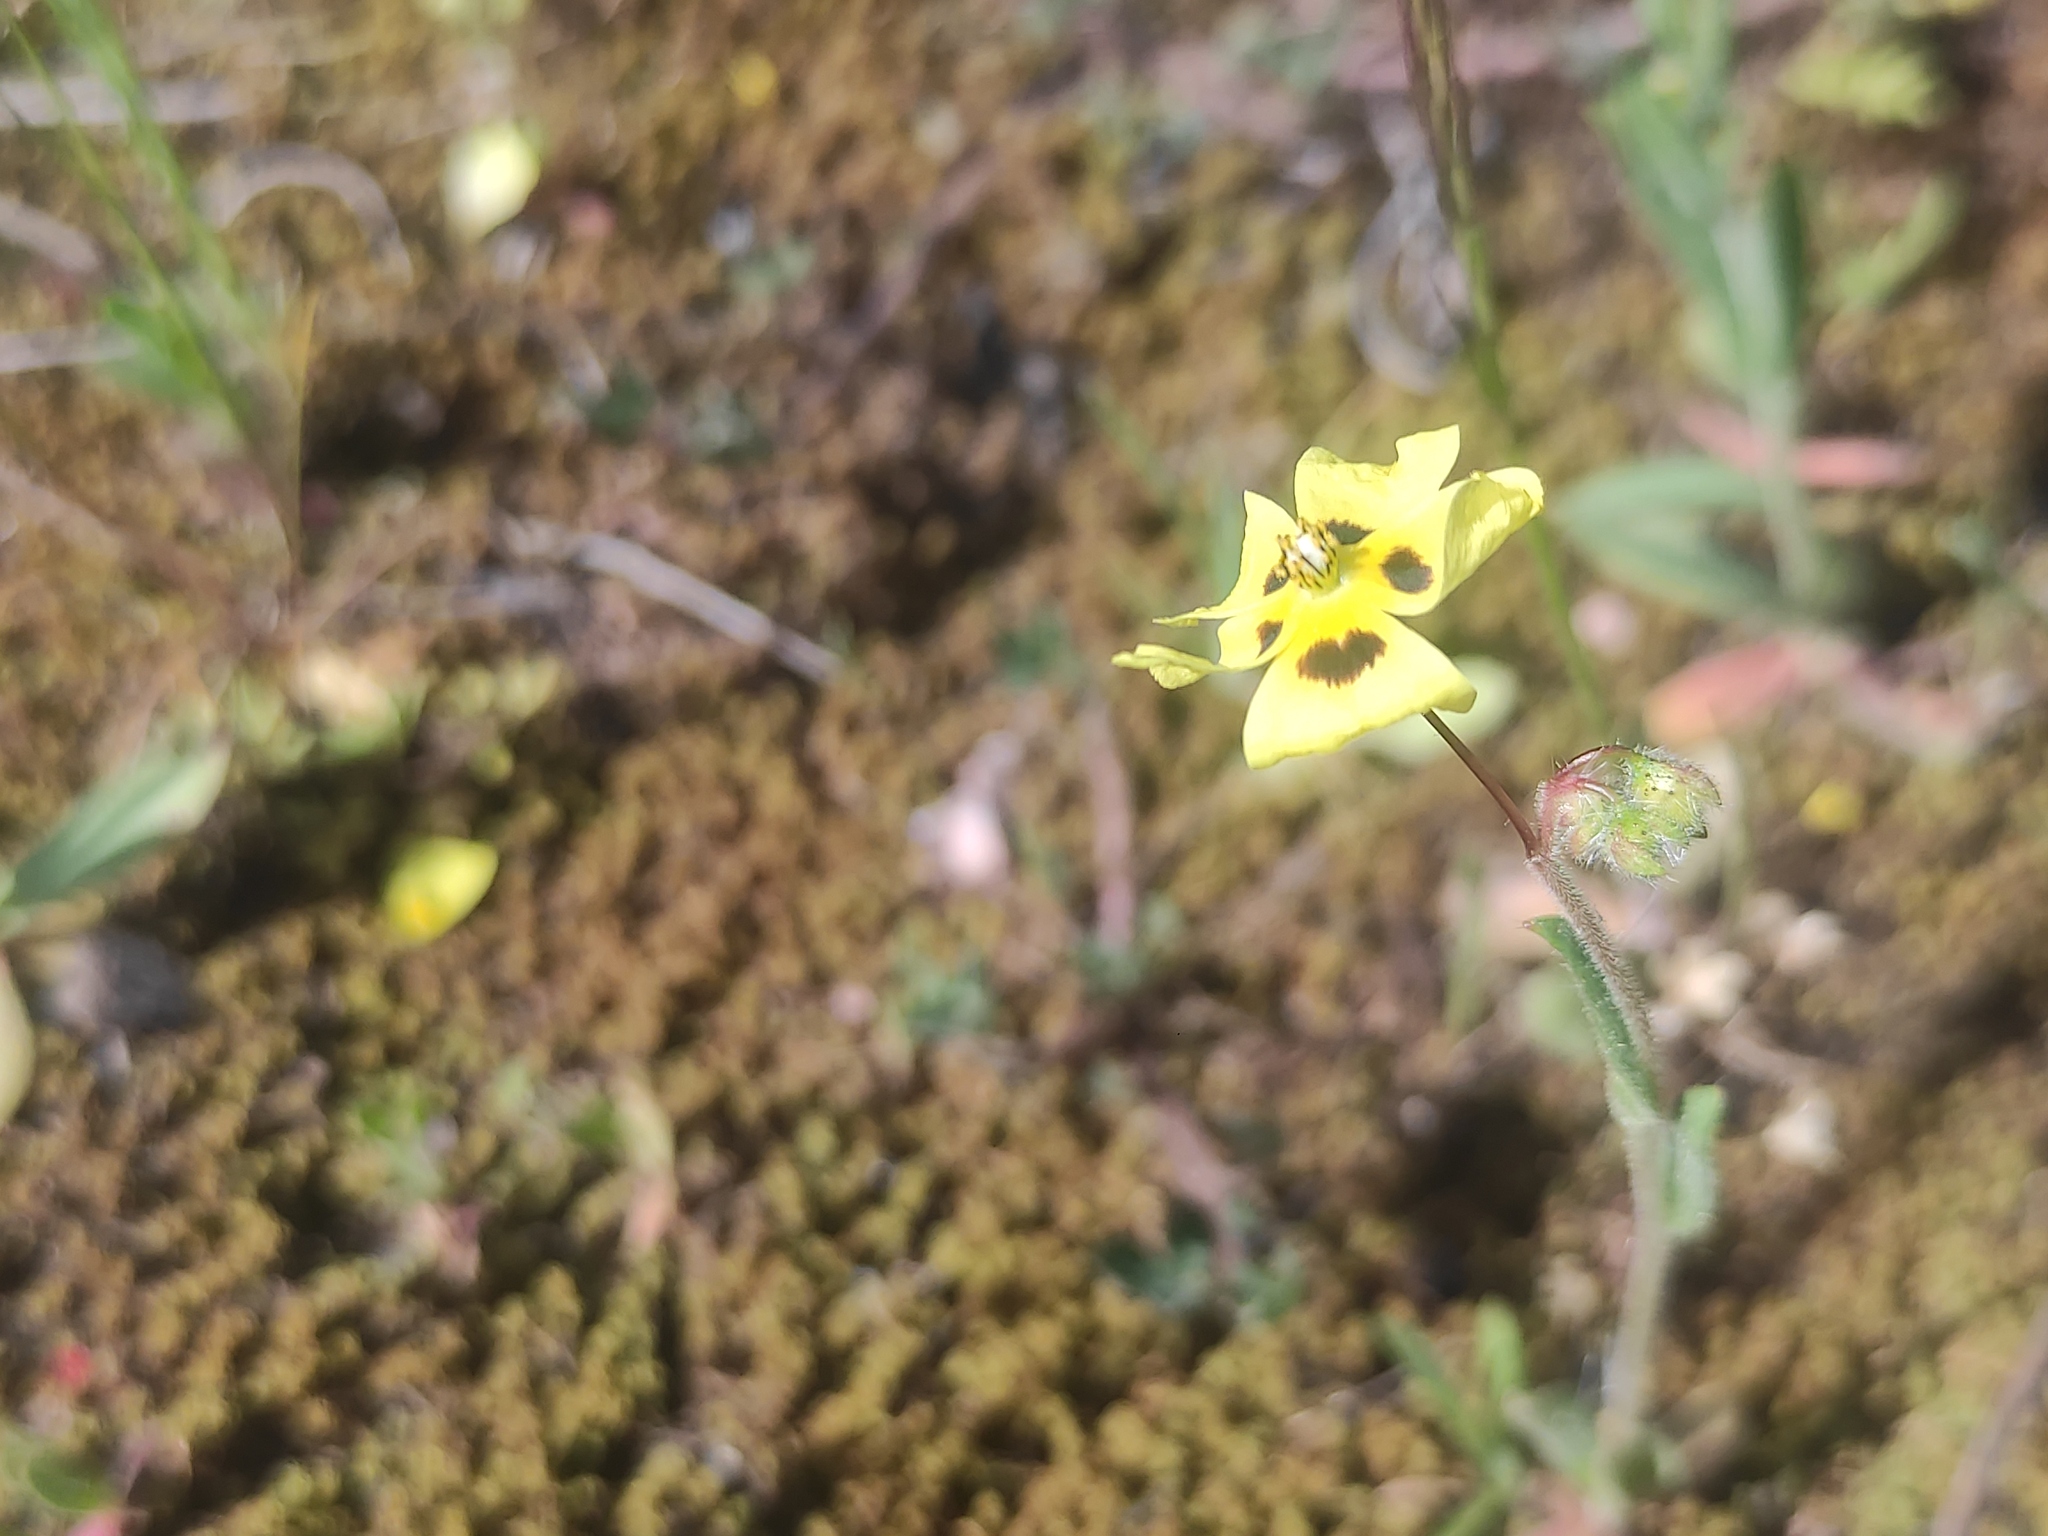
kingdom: Plantae
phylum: Tracheophyta
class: Magnoliopsida
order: Malvales
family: Cistaceae
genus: Tuberaria
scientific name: Tuberaria guttata
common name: Spotted rock-rose
